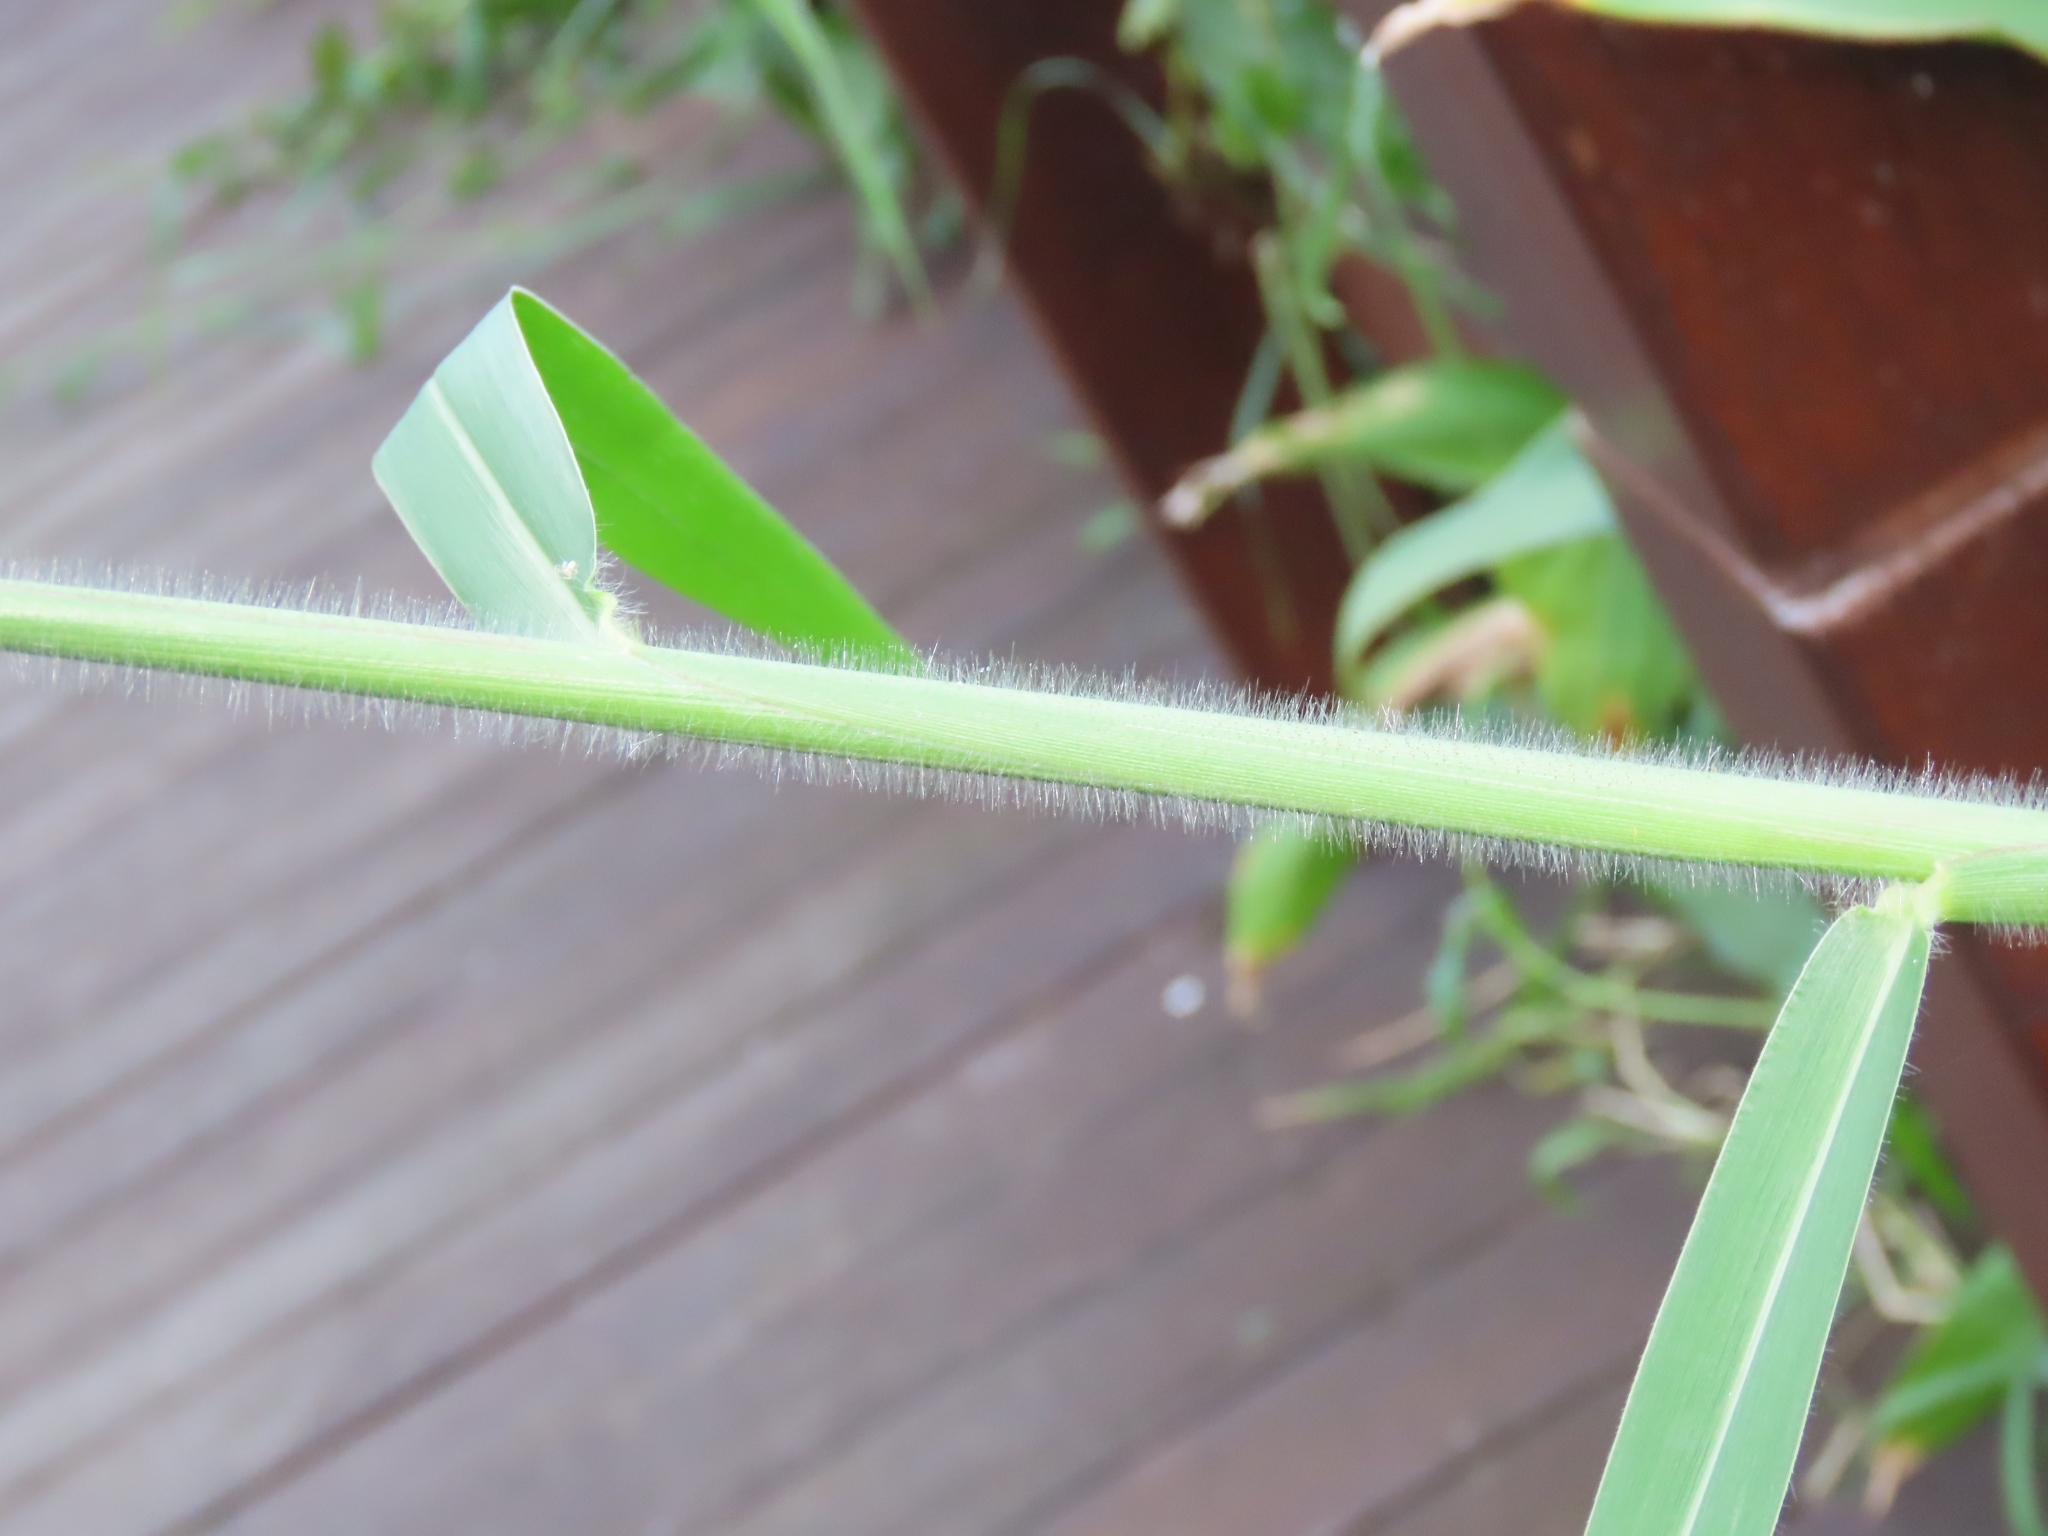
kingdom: Plantae
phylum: Tracheophyta
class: Liliopsida
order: Poales
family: Poaceae
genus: Urochloa
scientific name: Urochloa mutica
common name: Para grass
